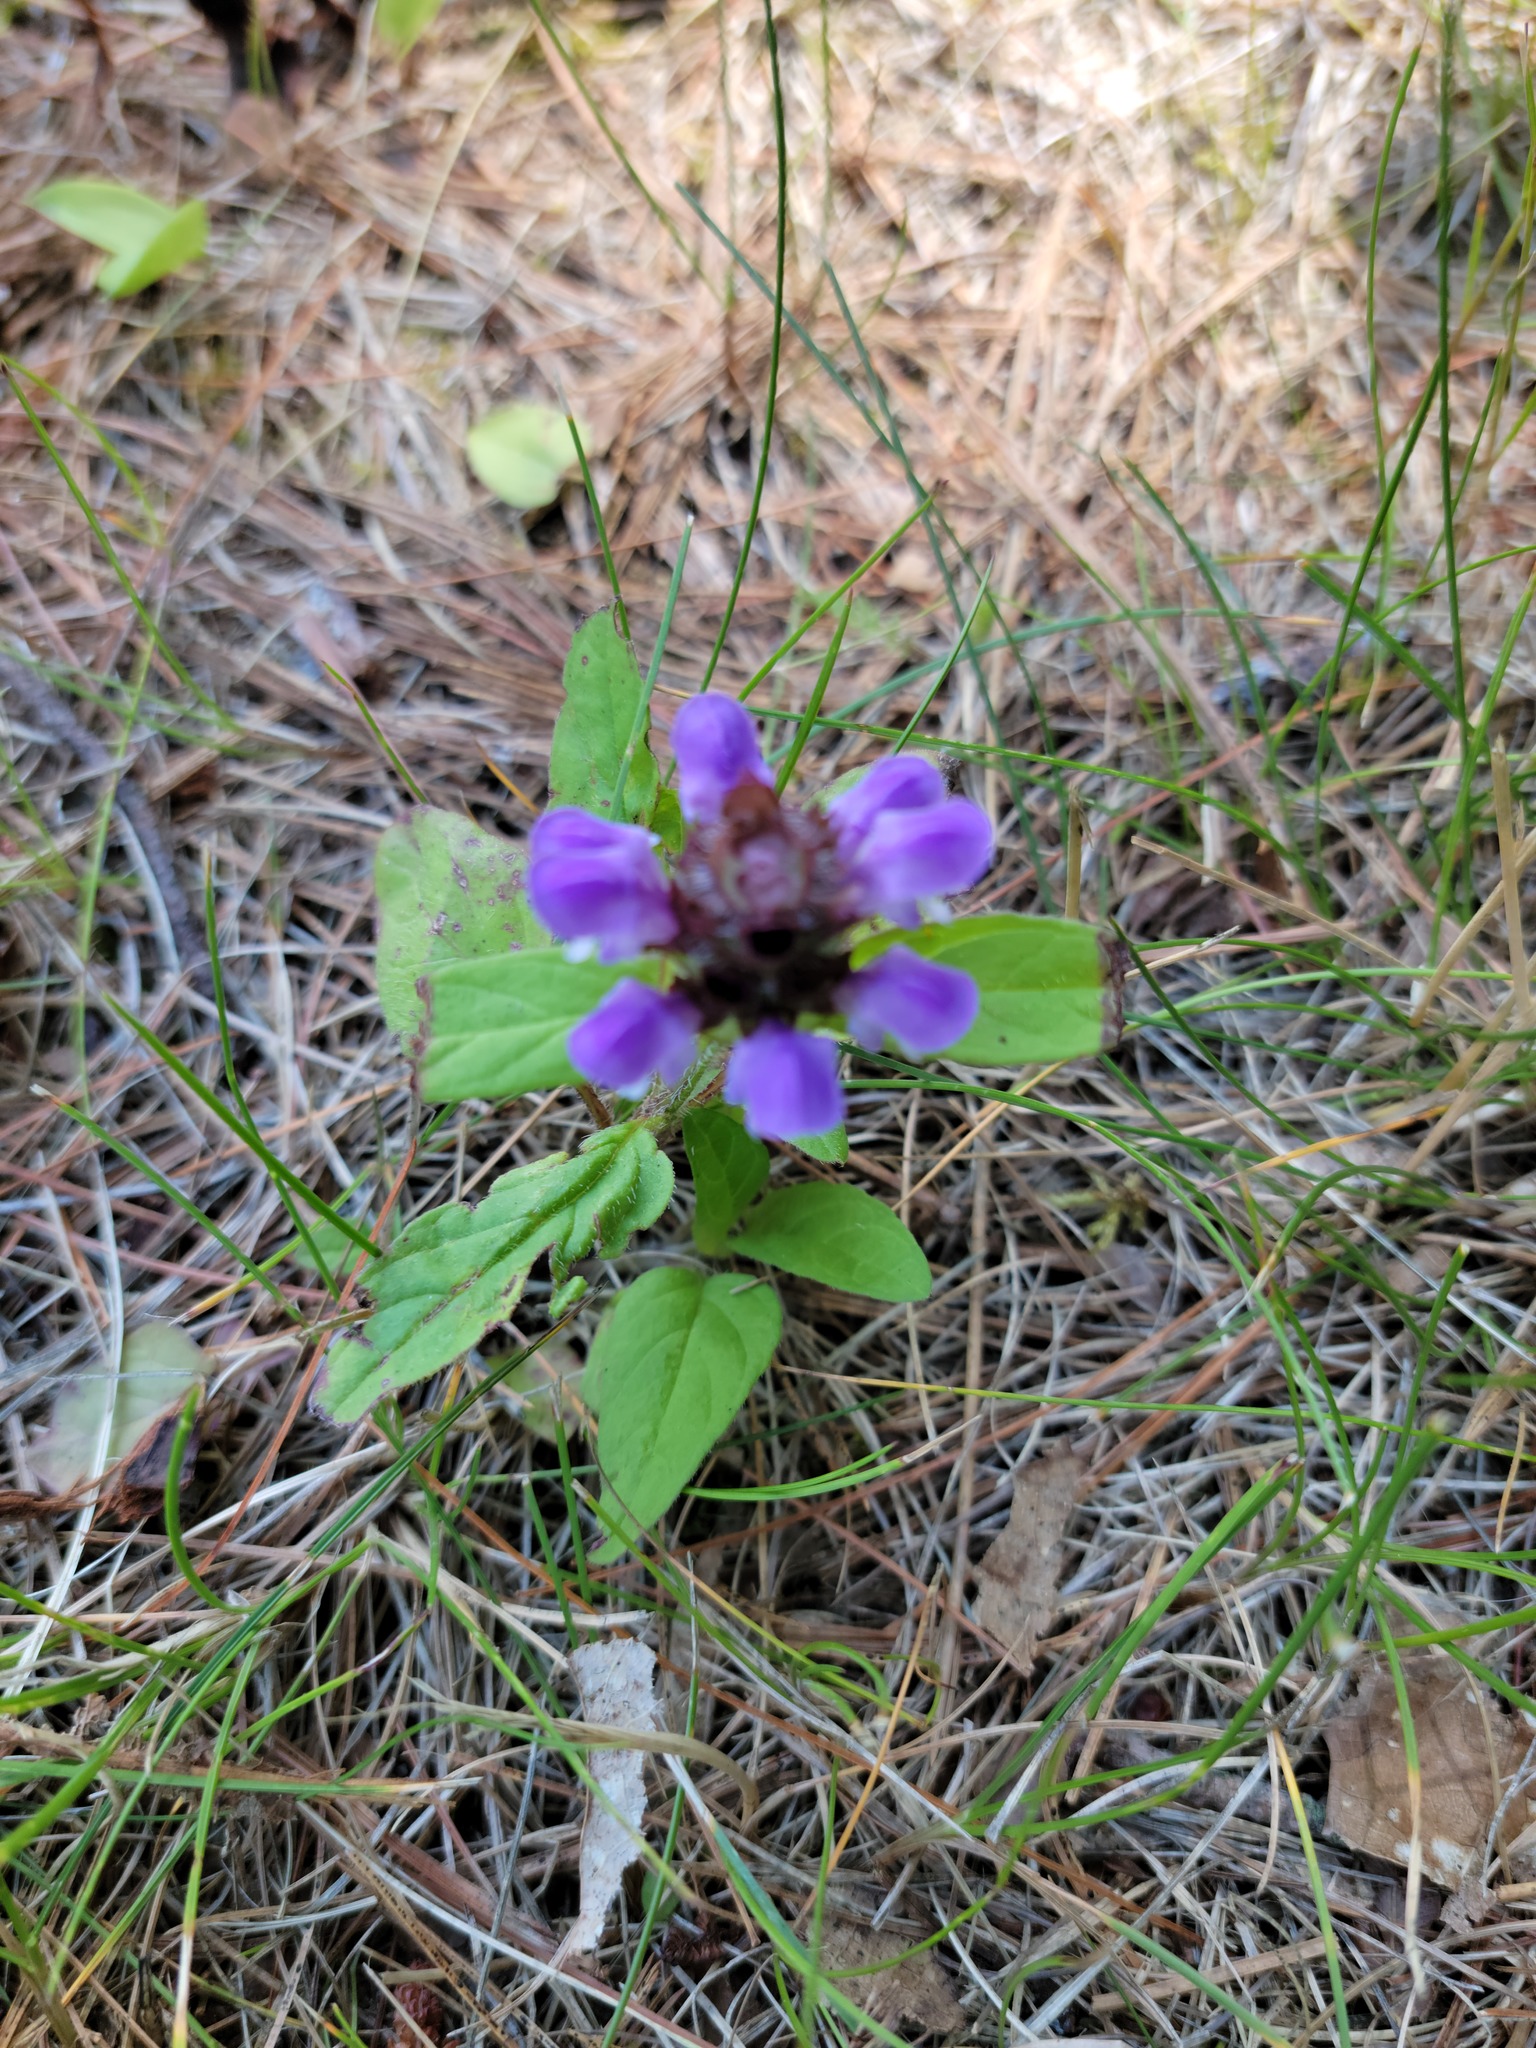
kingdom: Plantae
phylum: Tracheophyta
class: Magnoliopsida
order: Lamiales
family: Lamiaceae
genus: Prunella
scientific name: Prunella vulgaris
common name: Heal-all
